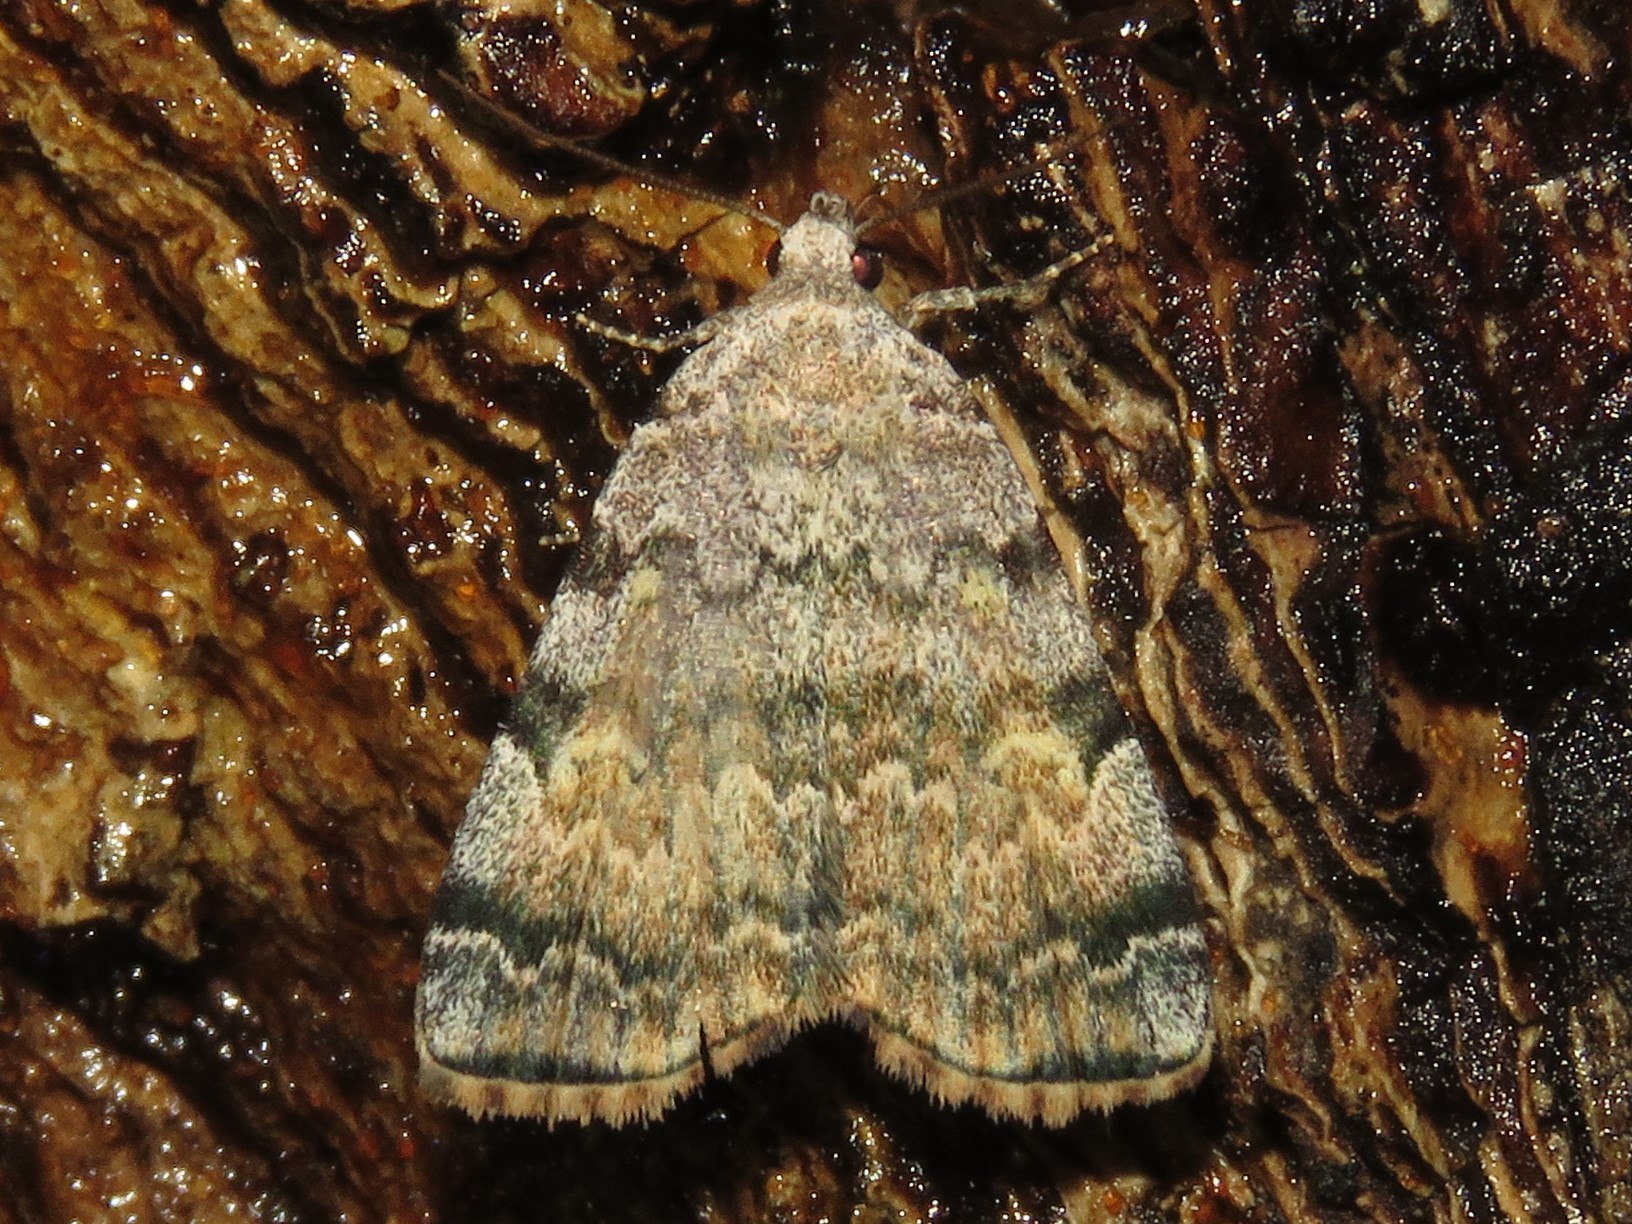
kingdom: Animalia
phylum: Arthropoda
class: Insecta
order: Lepidoptera
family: Erebidae
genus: Idia
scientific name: Idia americalis
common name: American idia moth
